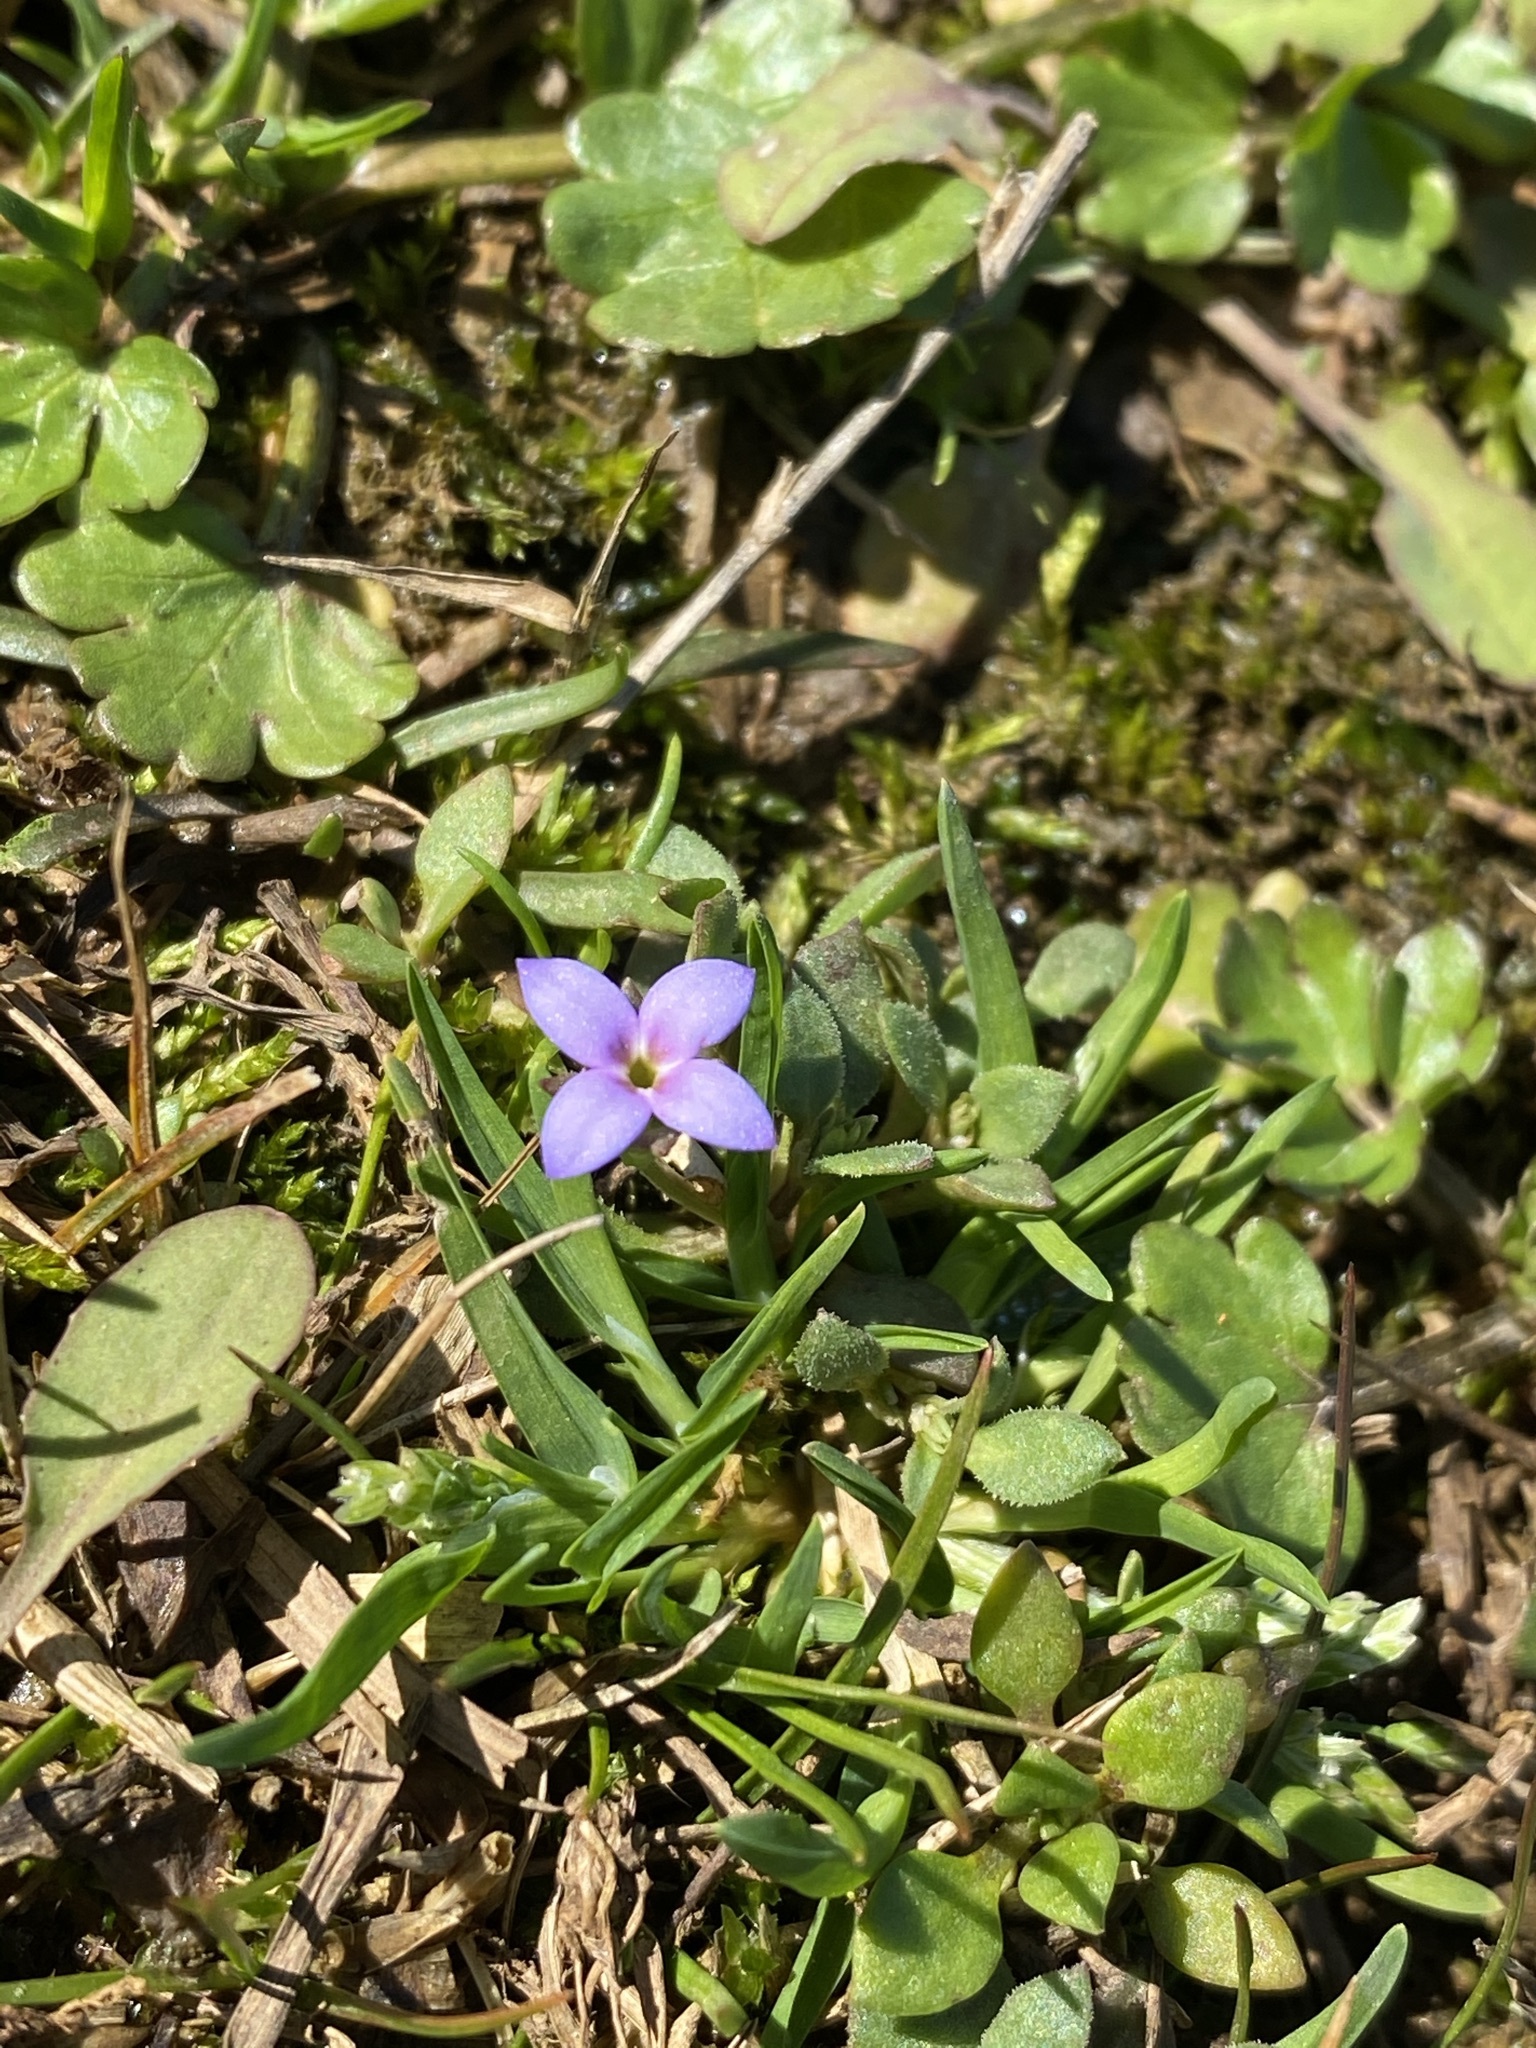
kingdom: Plantae
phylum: Tracheophyta
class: Magnoliopsida
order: Gentianales
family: Rubiaceae
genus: Houstonia
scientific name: Houstonia pusilla
